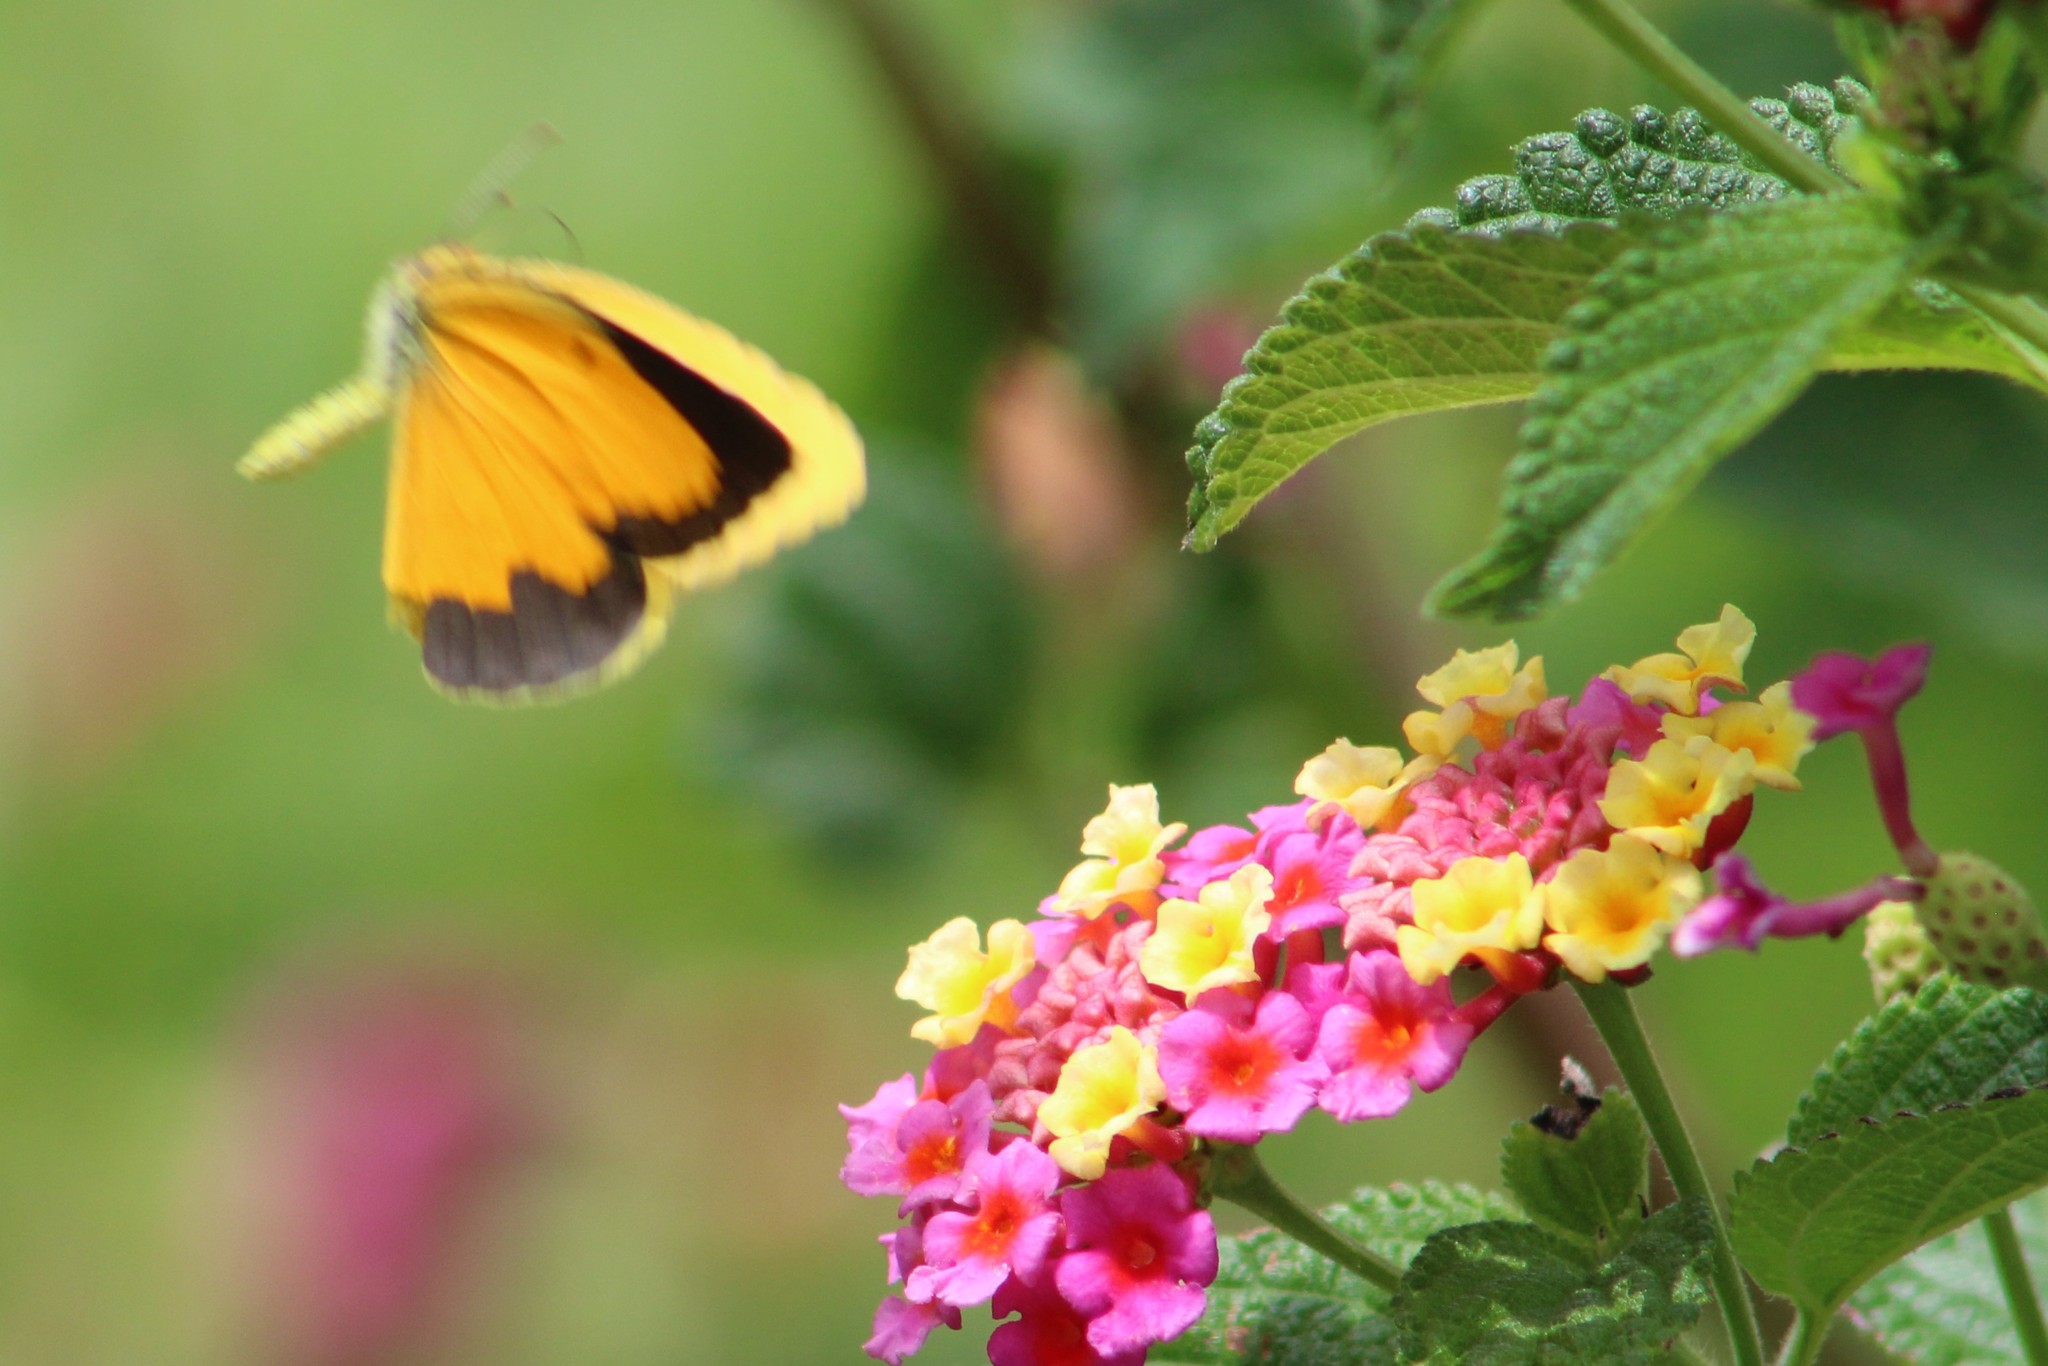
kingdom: Animalia
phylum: Arthropoda
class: Insecta
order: Lepidoptera
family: Pieridae
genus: Abaeis
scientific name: Abaeis nicippe
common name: Sleepy orange
